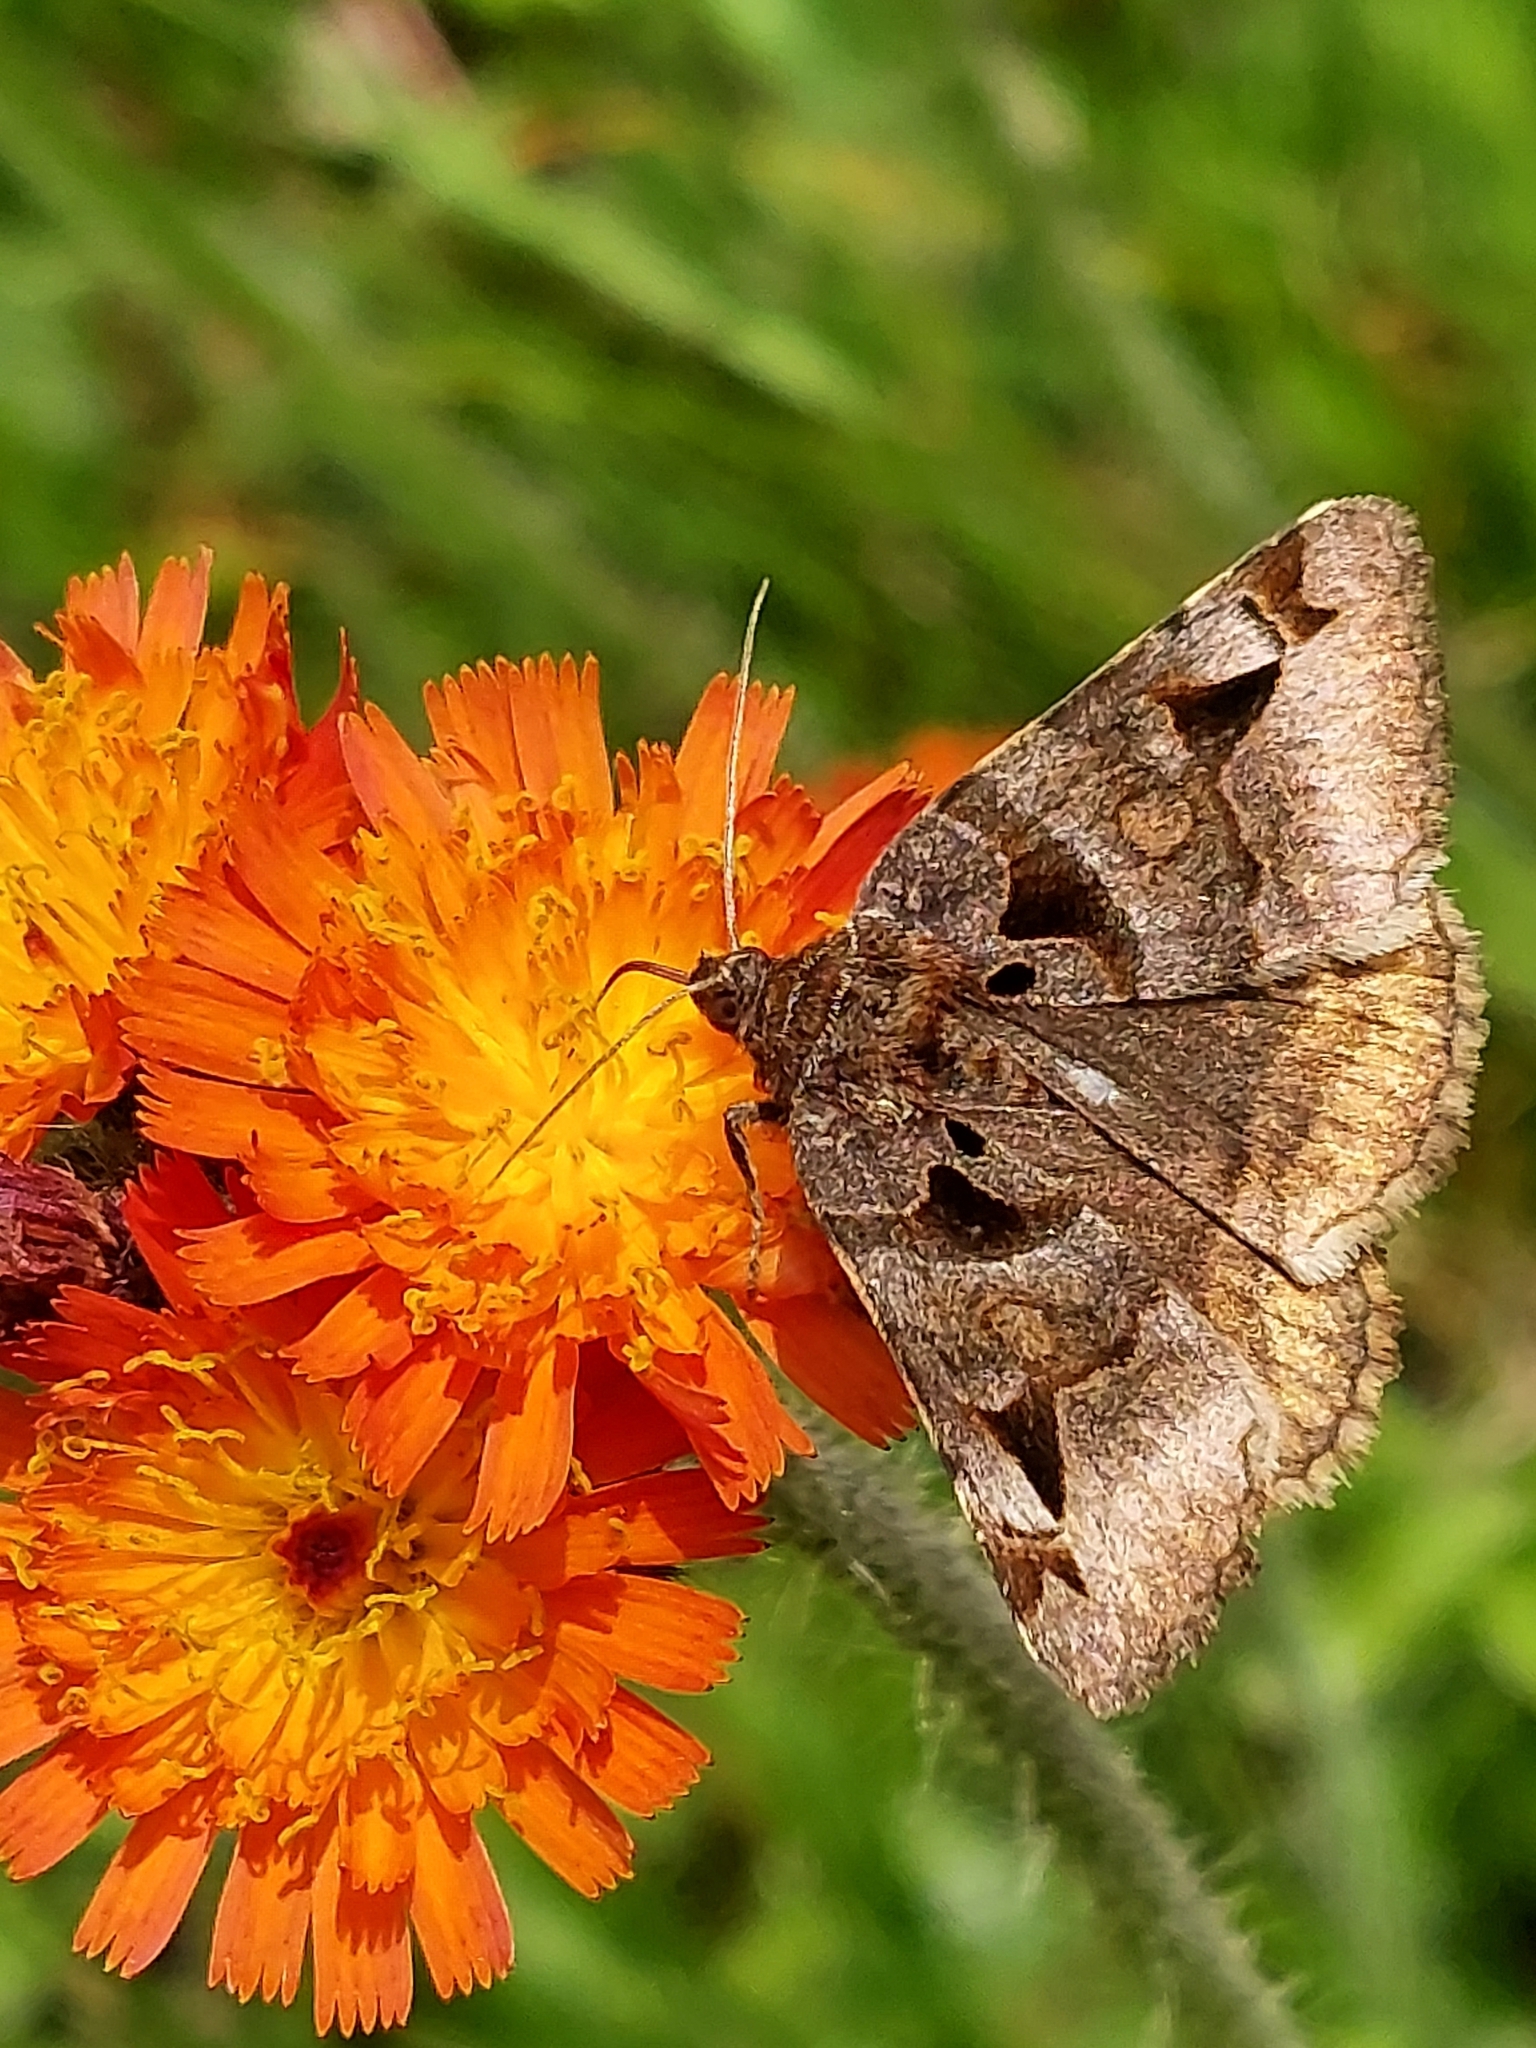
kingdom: Animalia
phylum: Arthropoda
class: Insecta
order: Lepidoptera
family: Erebidae
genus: Euclidia
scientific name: Euclidia cuspidea
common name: Toothed somberwing
